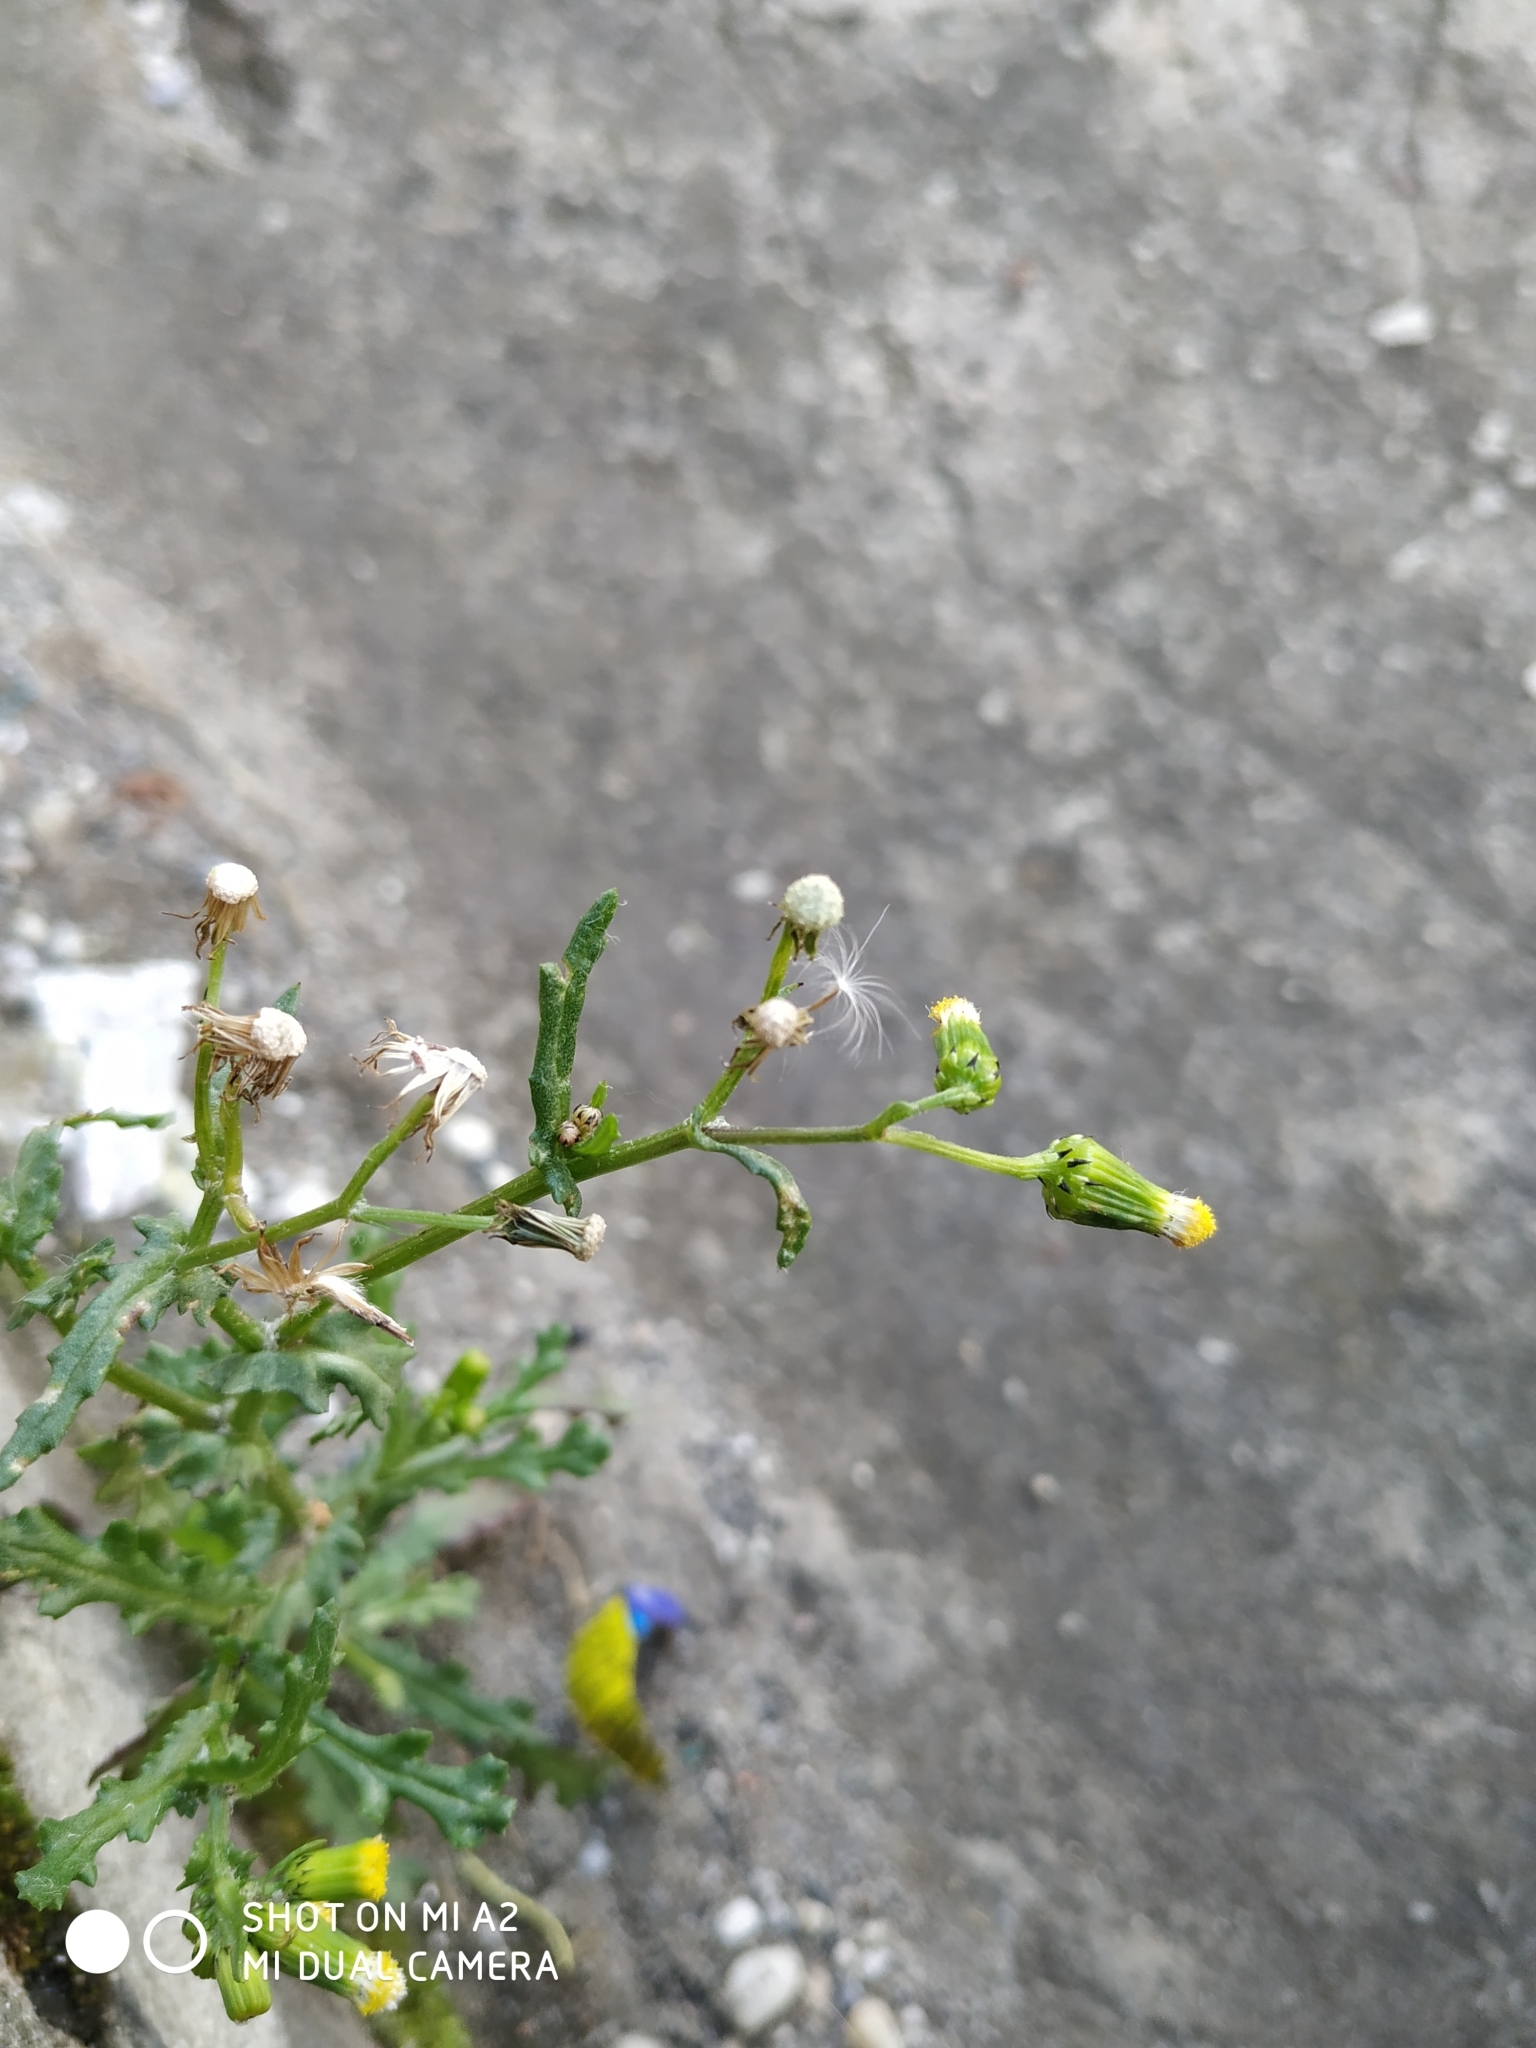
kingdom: Plantae
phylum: Tracheophyta
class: Magnoliopsida
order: Asterales
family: Asteraceae
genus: Senecio
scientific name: Senecio vulgaris
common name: Old-man-in-the-spring
